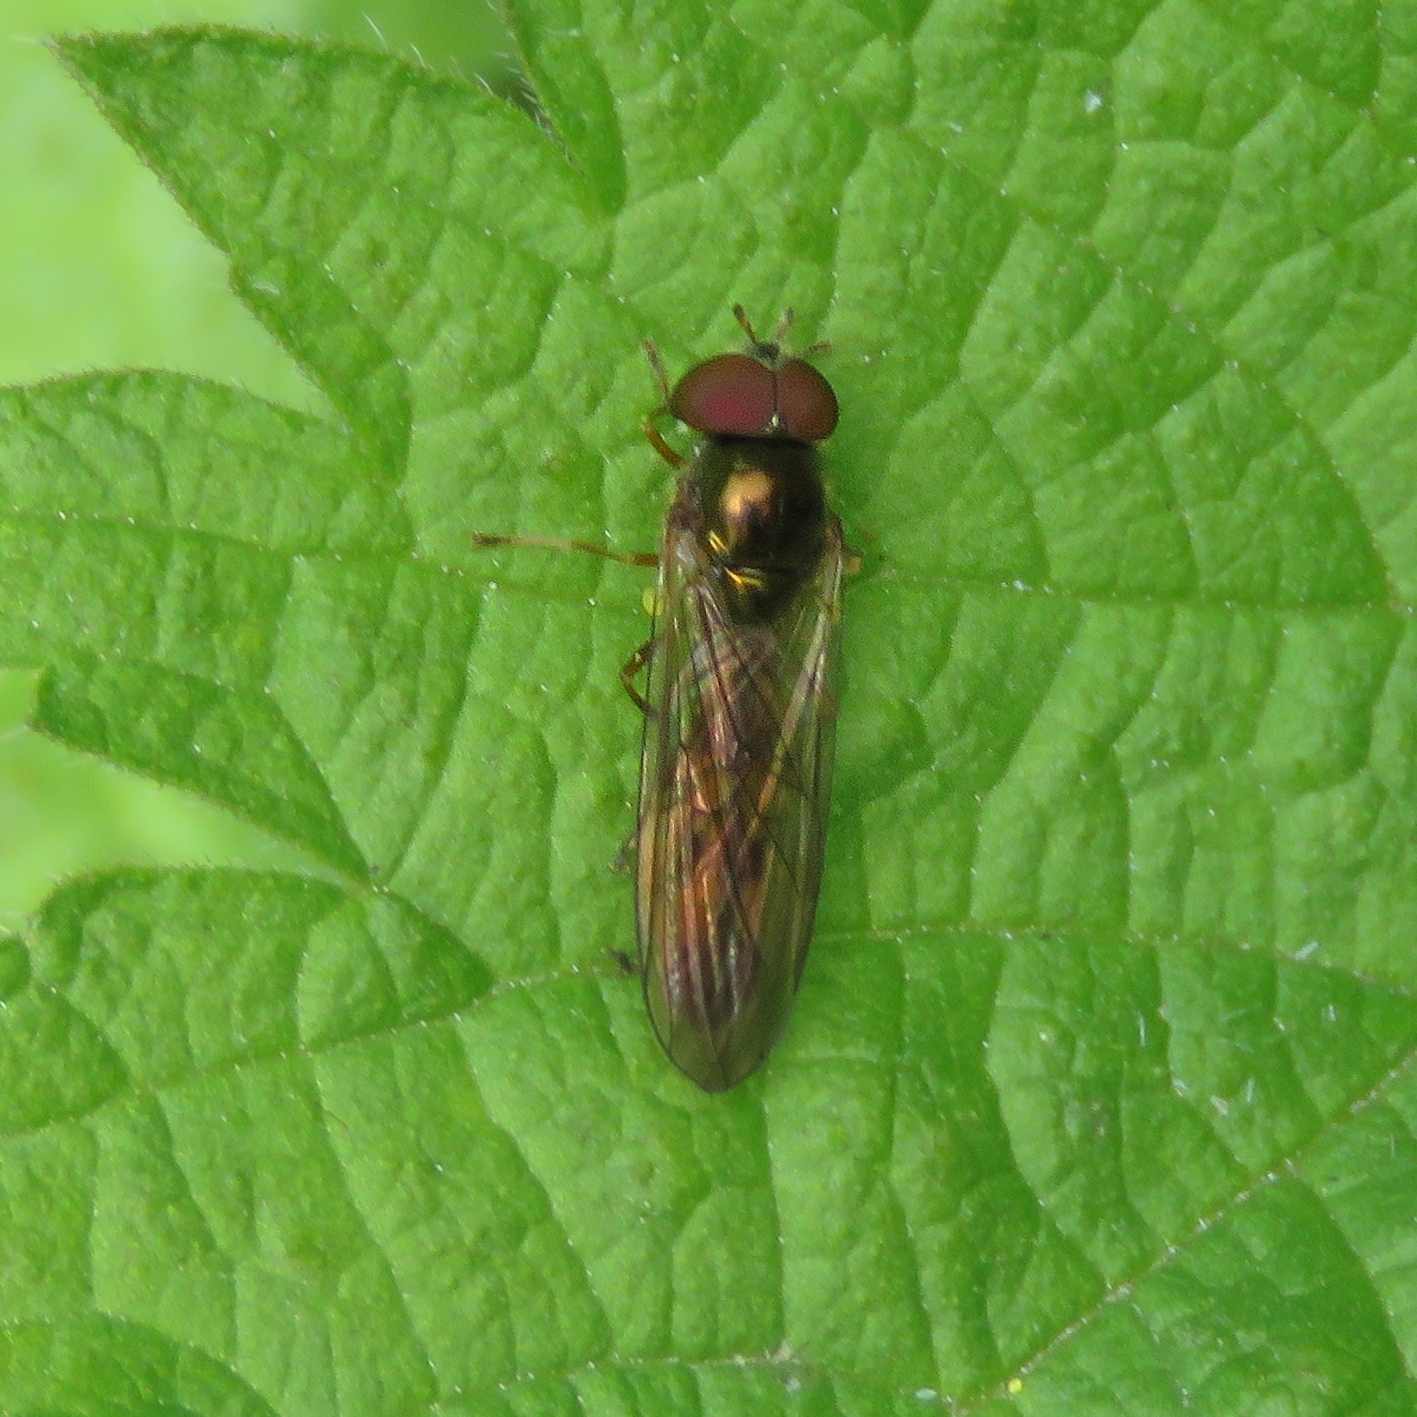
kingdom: Animalia
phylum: Arthropoda
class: Insecta
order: Diptera
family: Syrphidae
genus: Melanostoma
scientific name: Melanostoma scalare
